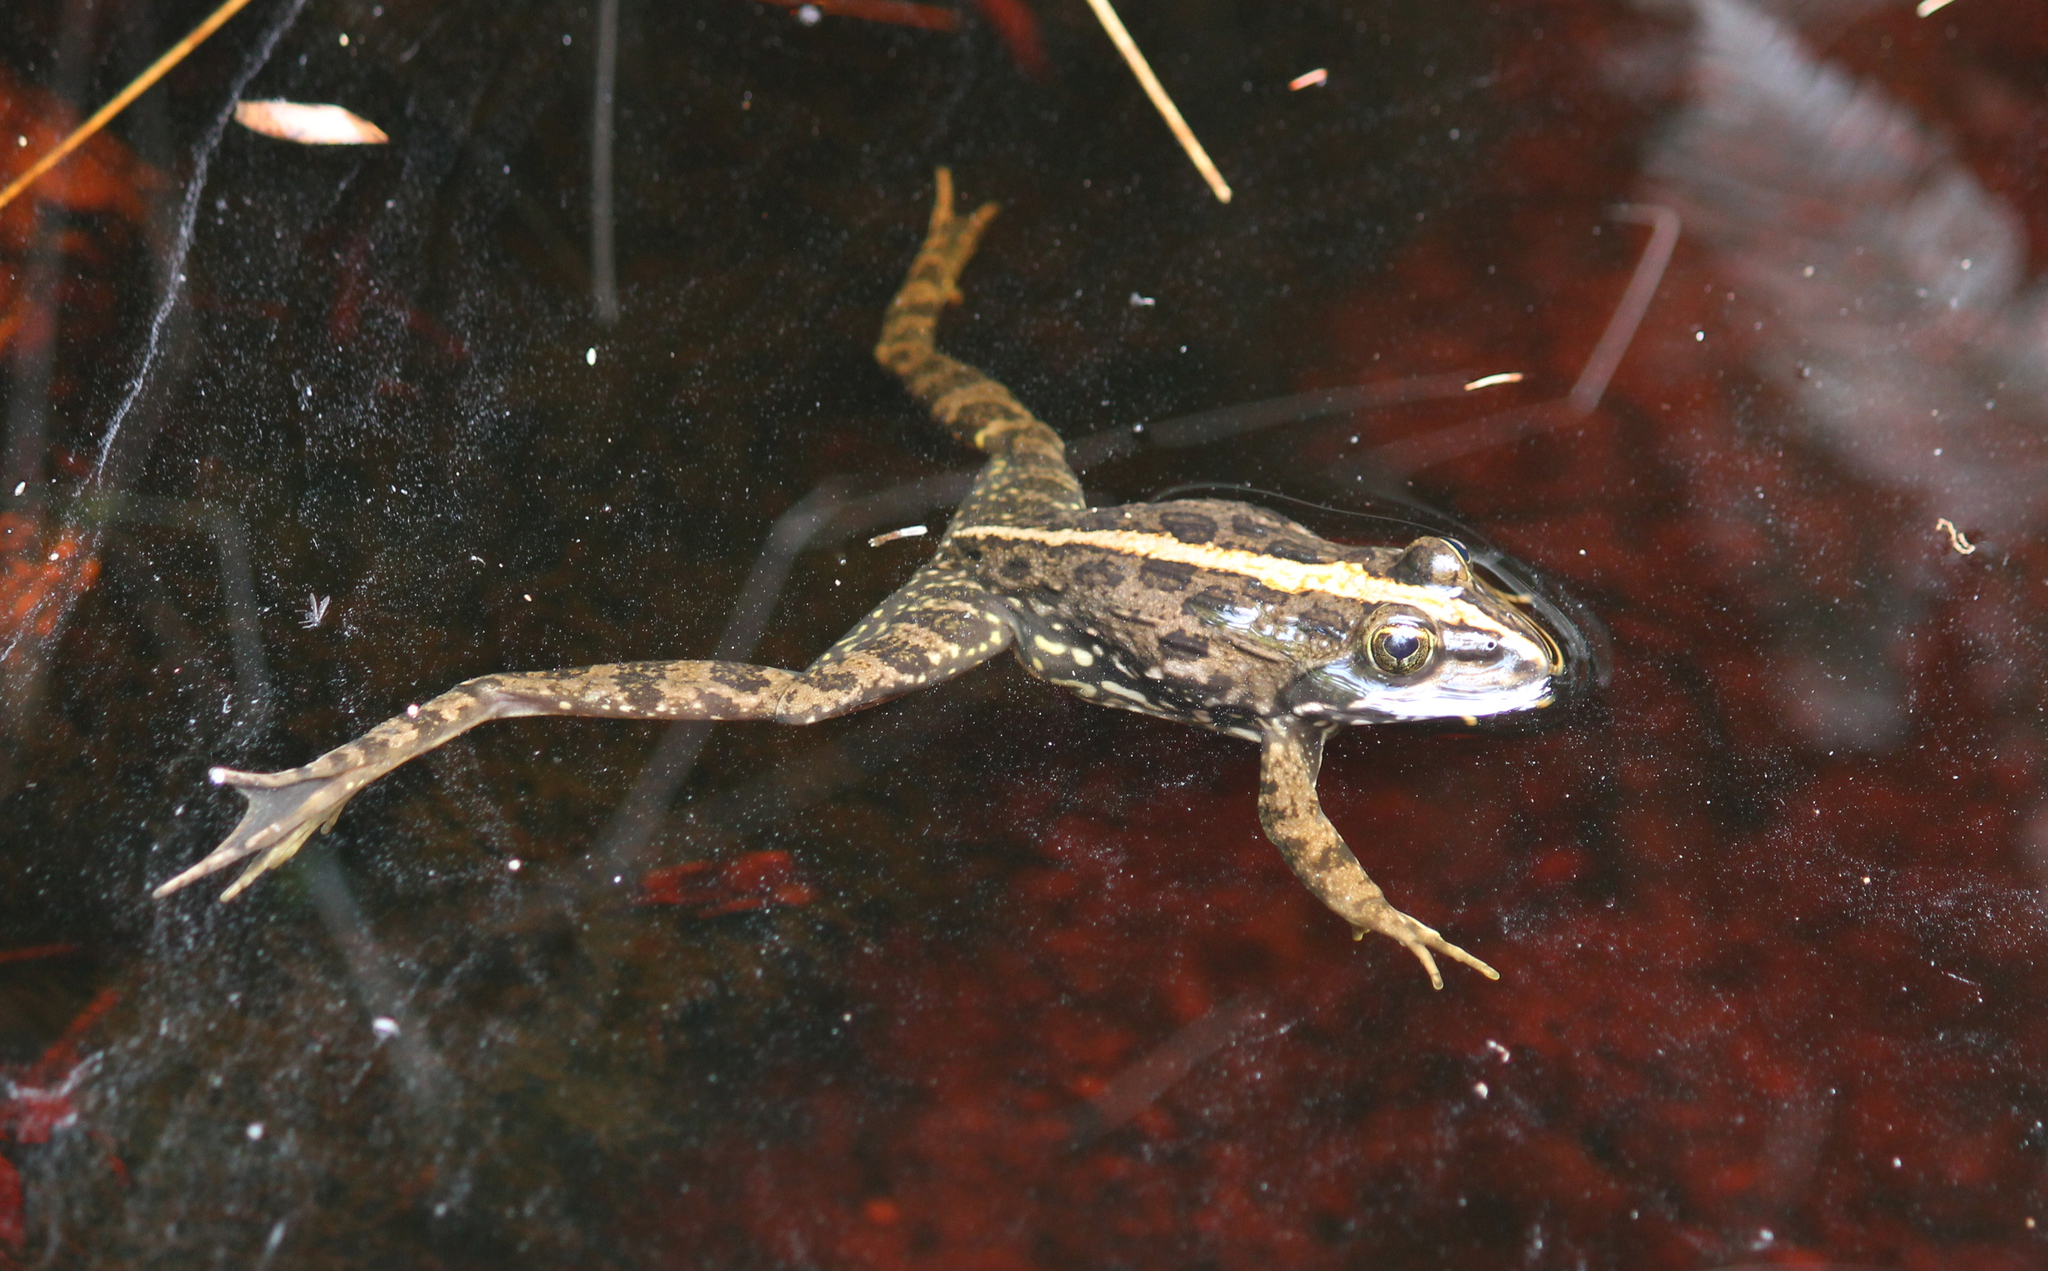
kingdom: Animalia
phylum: Chordata
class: Amphibia
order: Anura
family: Pyxicephalidae
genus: Amietia
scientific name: Amietia fuscigula
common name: Cape rana
